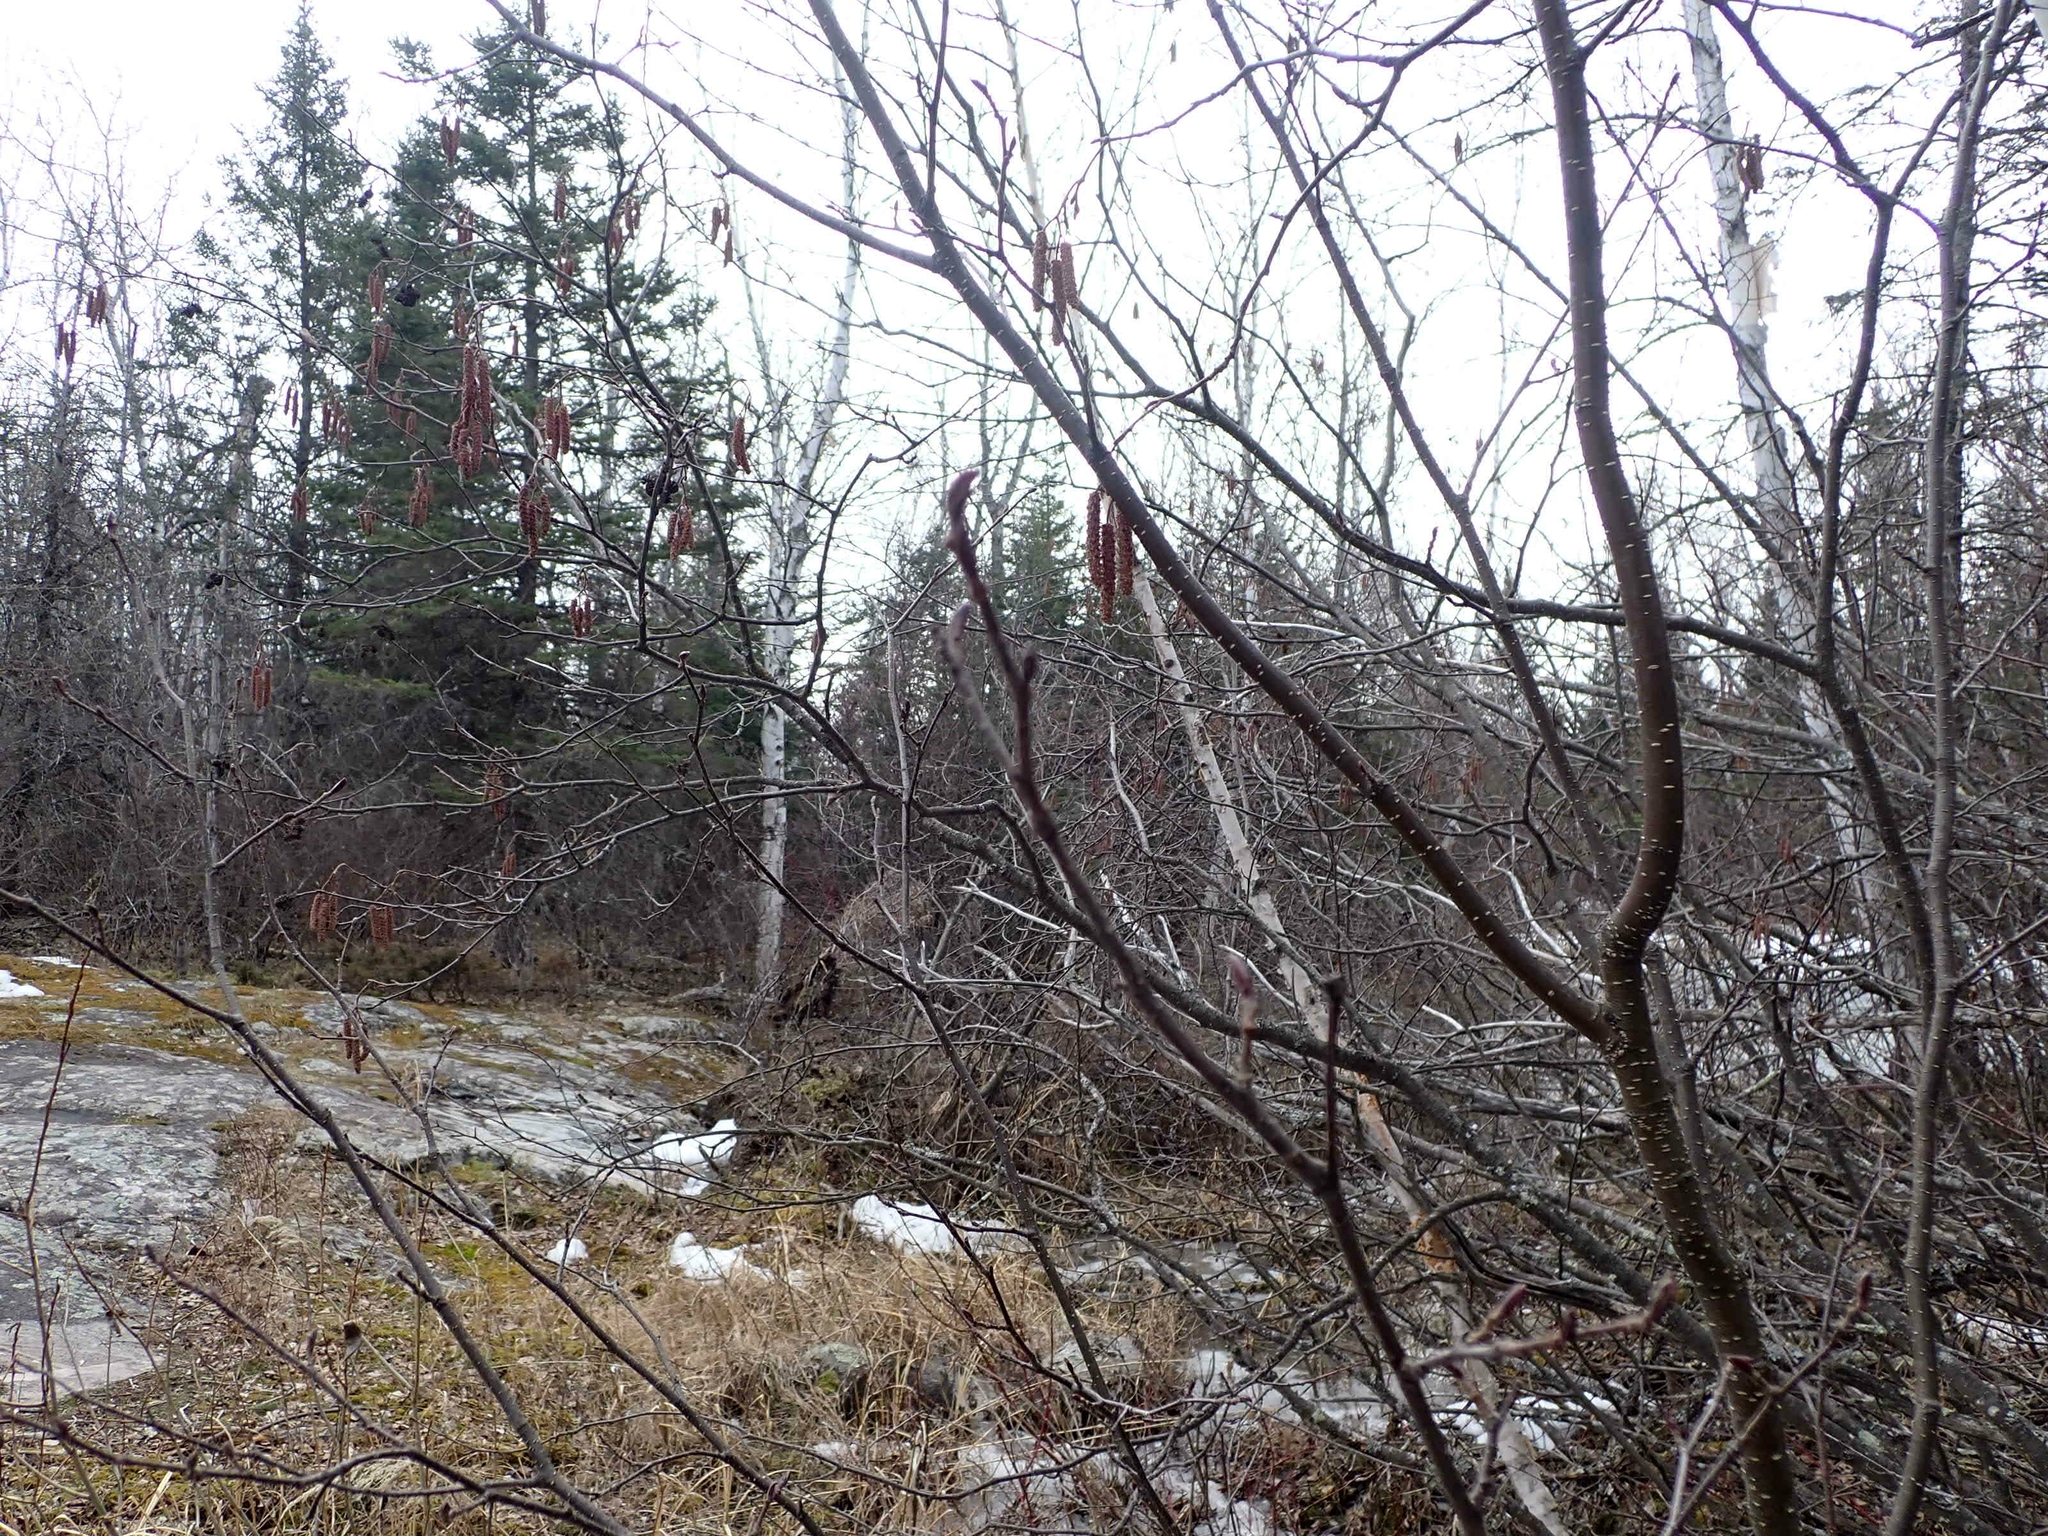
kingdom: Plantae
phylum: Tracheophyta
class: Magnoliopsida
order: Fagales
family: Betulaceae
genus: Alnus
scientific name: Alnus incana
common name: Grey alder
